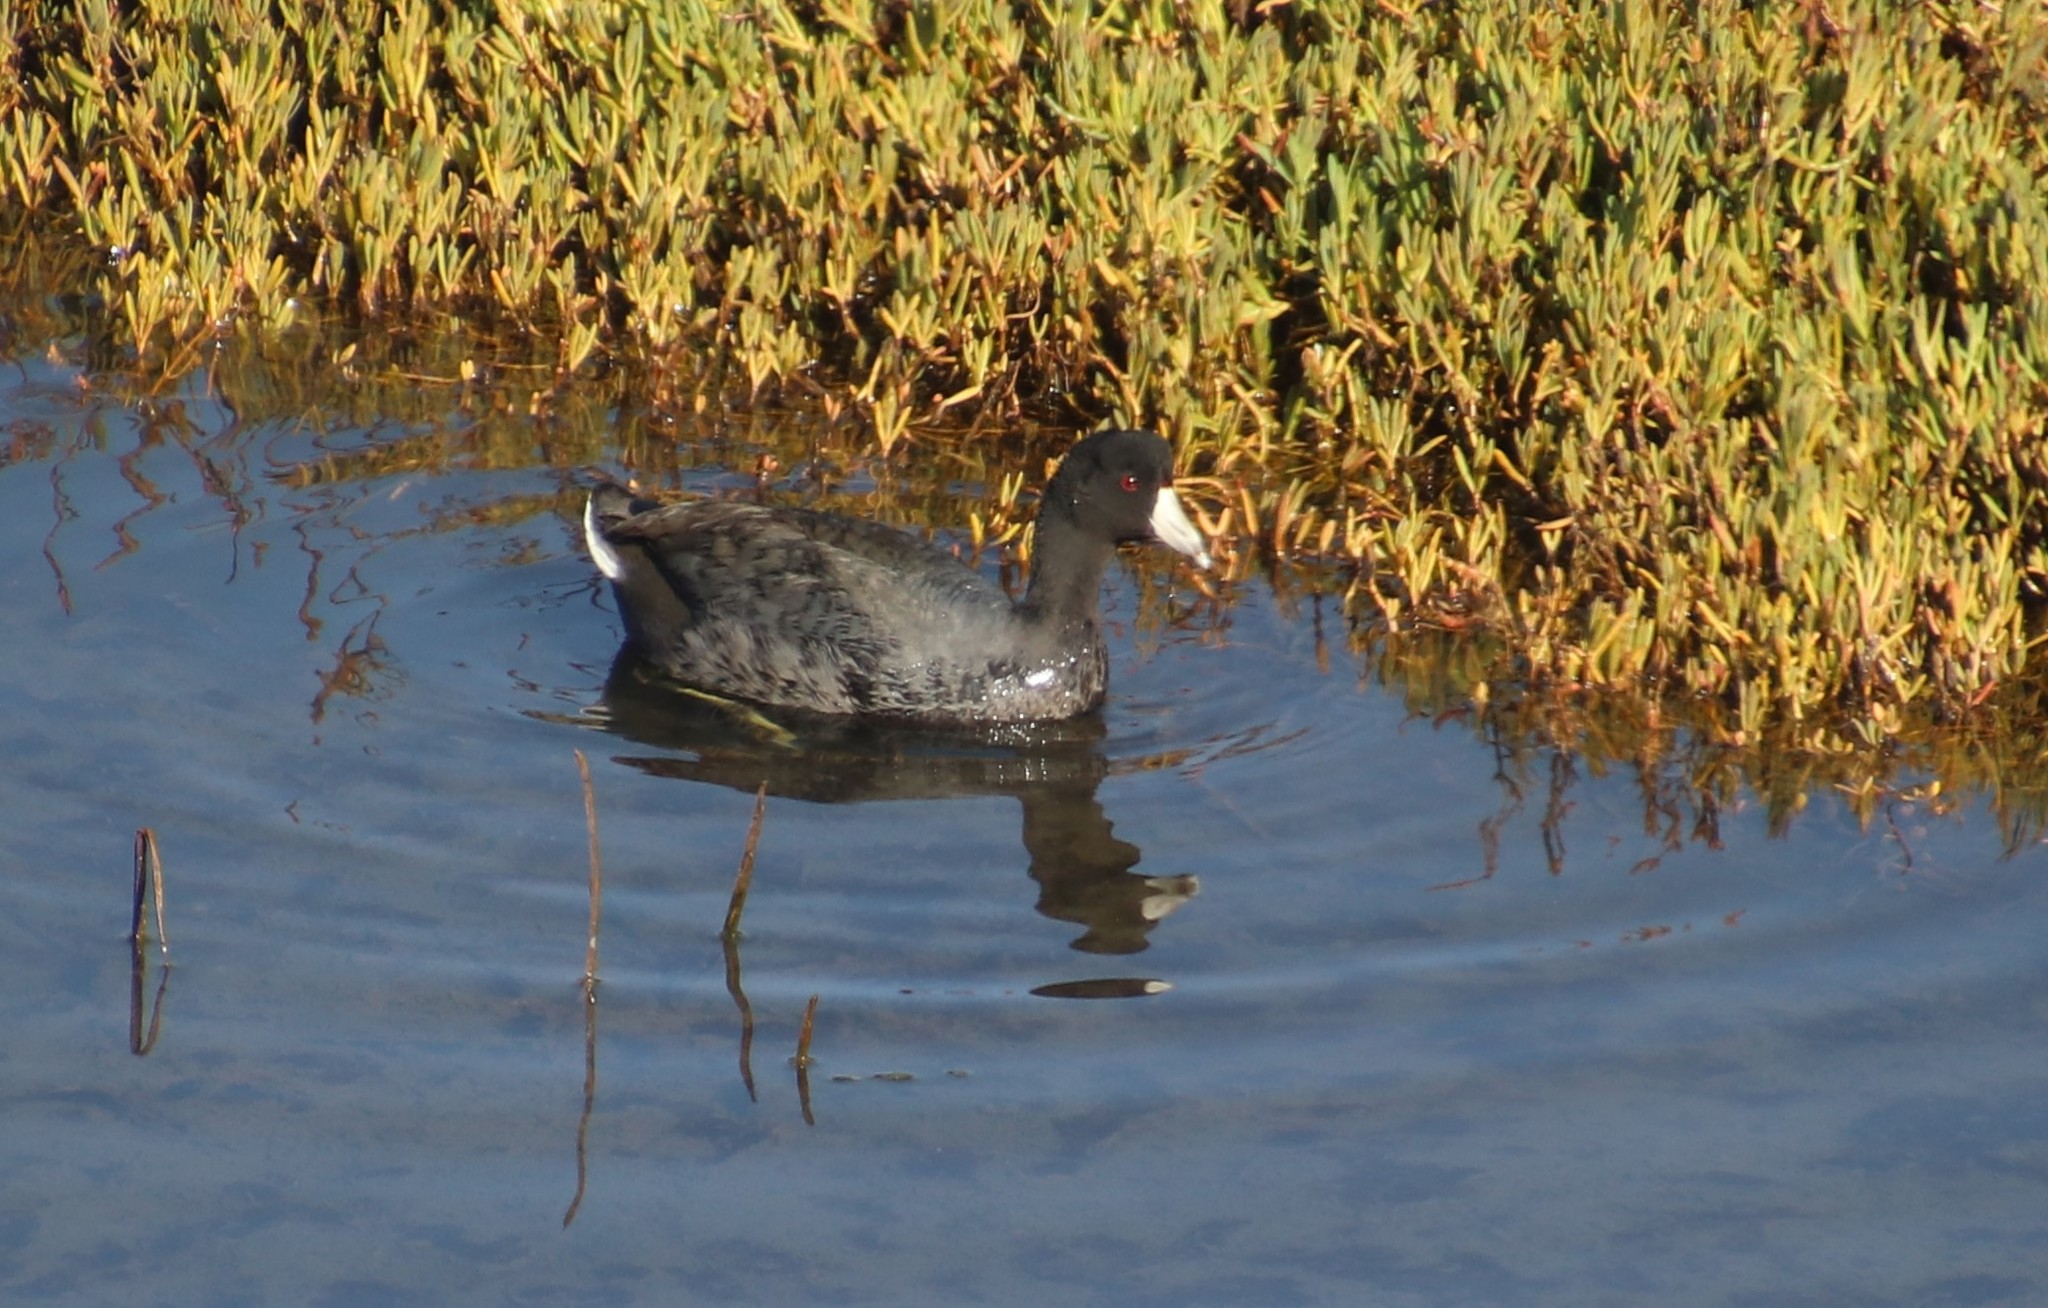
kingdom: Animalia
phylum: Chordata
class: Aves
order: Gruiformes
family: Rallidae
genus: Fulica
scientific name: Fulica americana
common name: American coot
